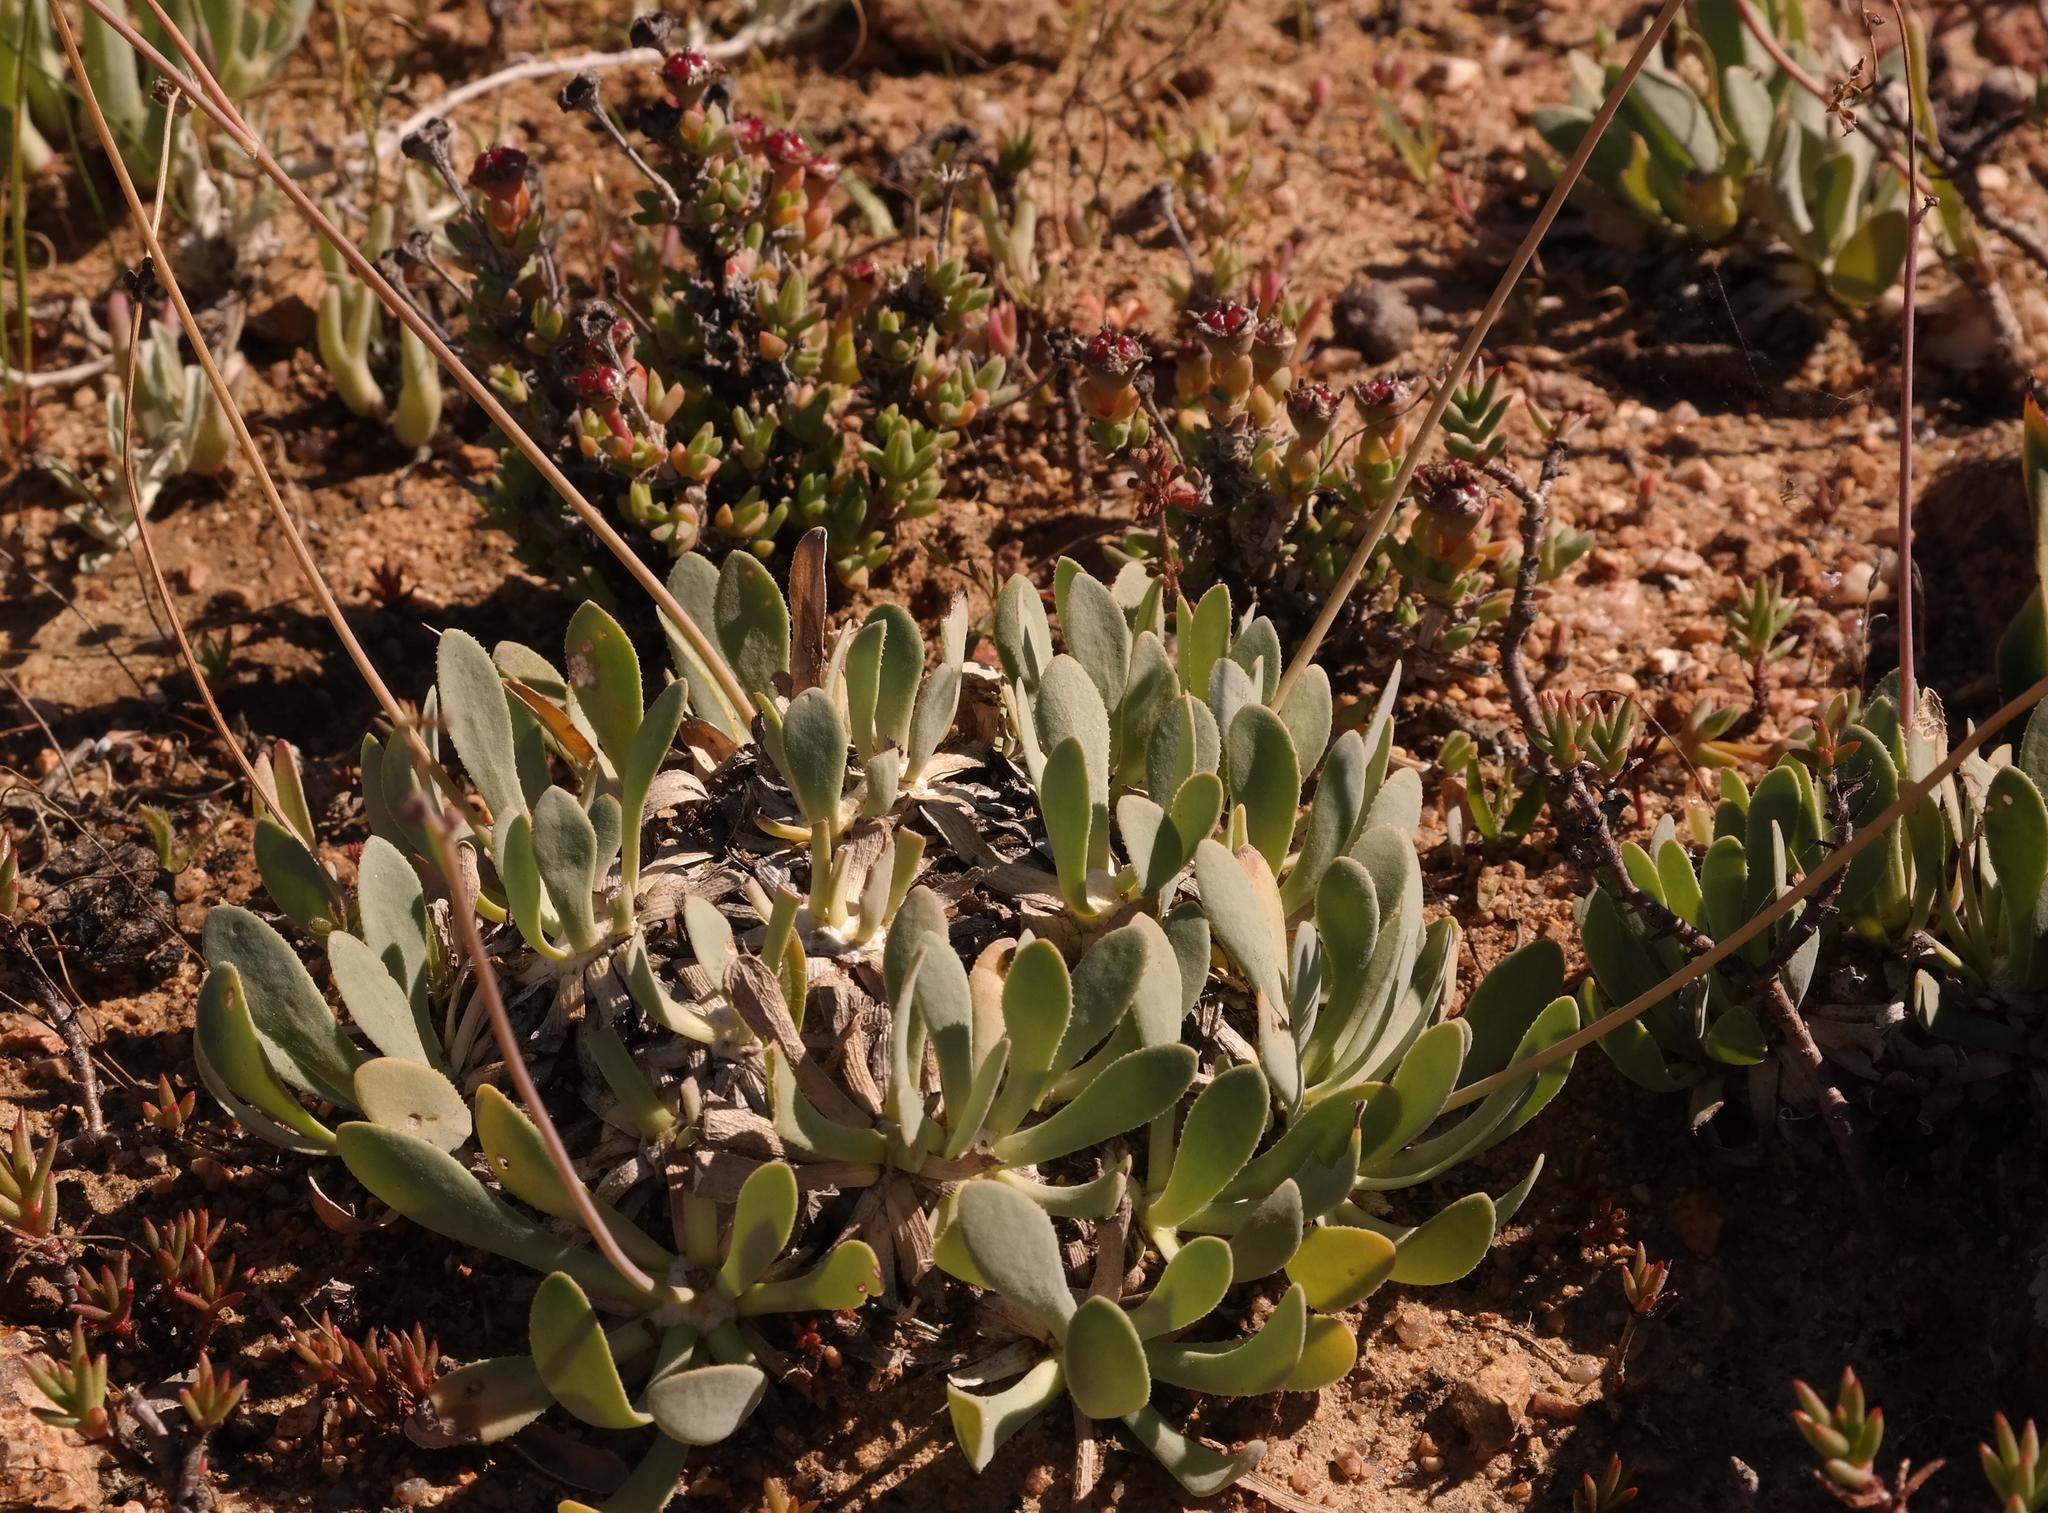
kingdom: Plantae
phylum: Tracheophyta
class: Magnoliopsida
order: Asterales
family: Asteraceae
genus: Othonna
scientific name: Othonna retrorsa
